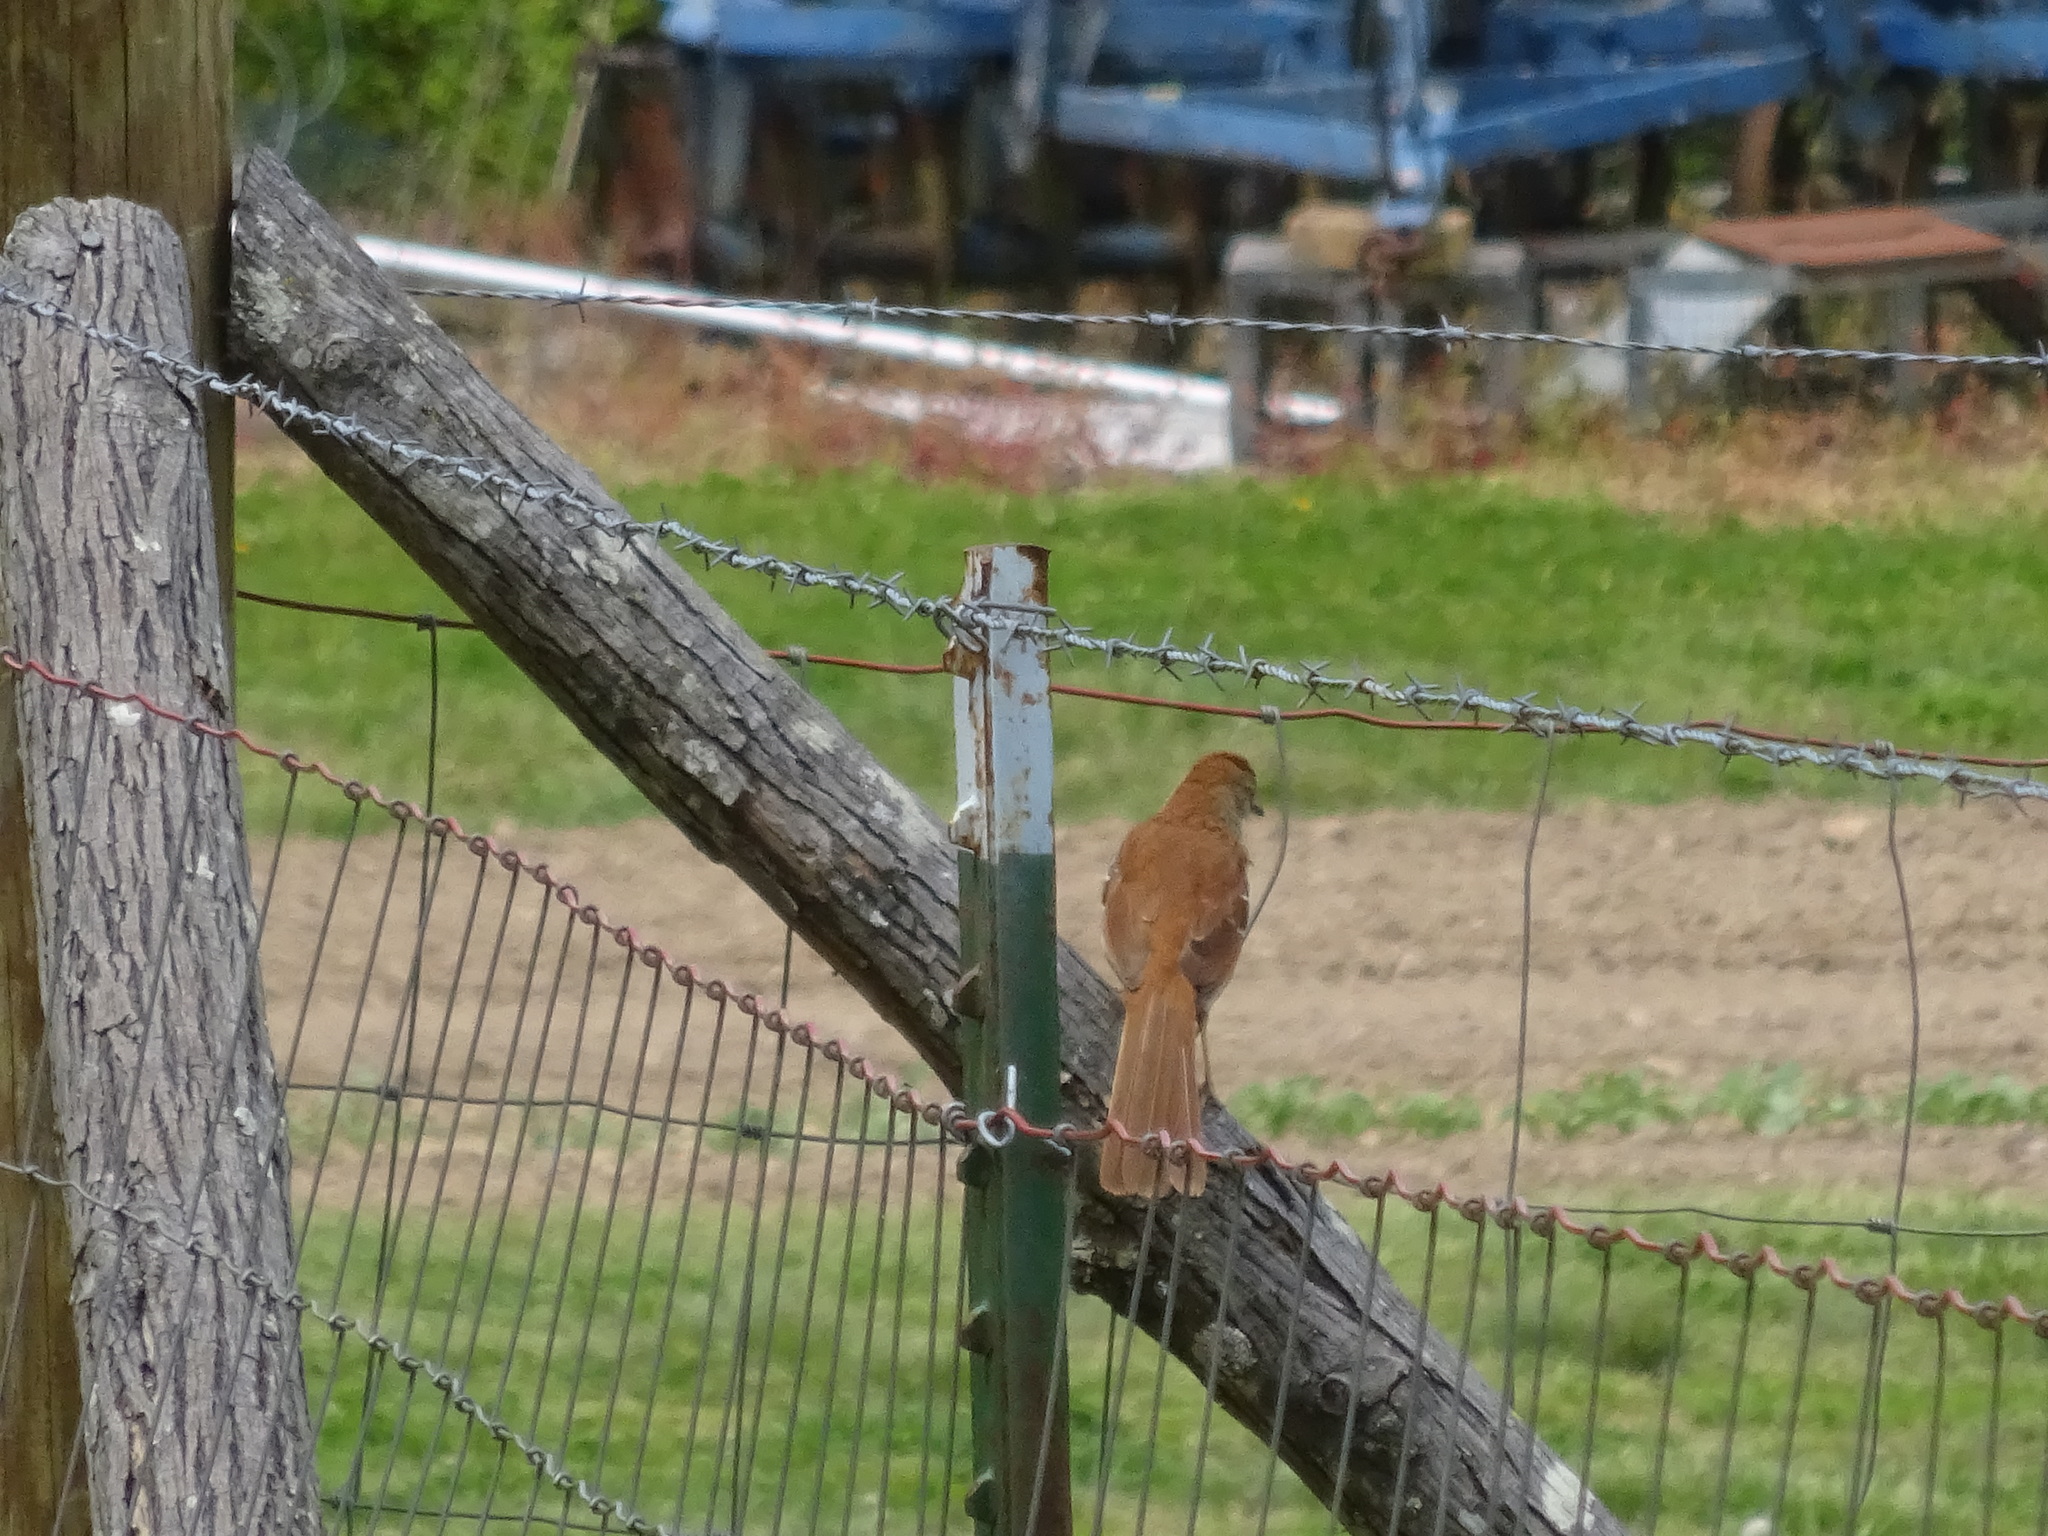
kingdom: Animalia
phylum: Chordata
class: Aves
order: Passeriformes
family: Mimidae
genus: Toxostoma
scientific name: Toxostoma rufum
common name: Brown thrasher
